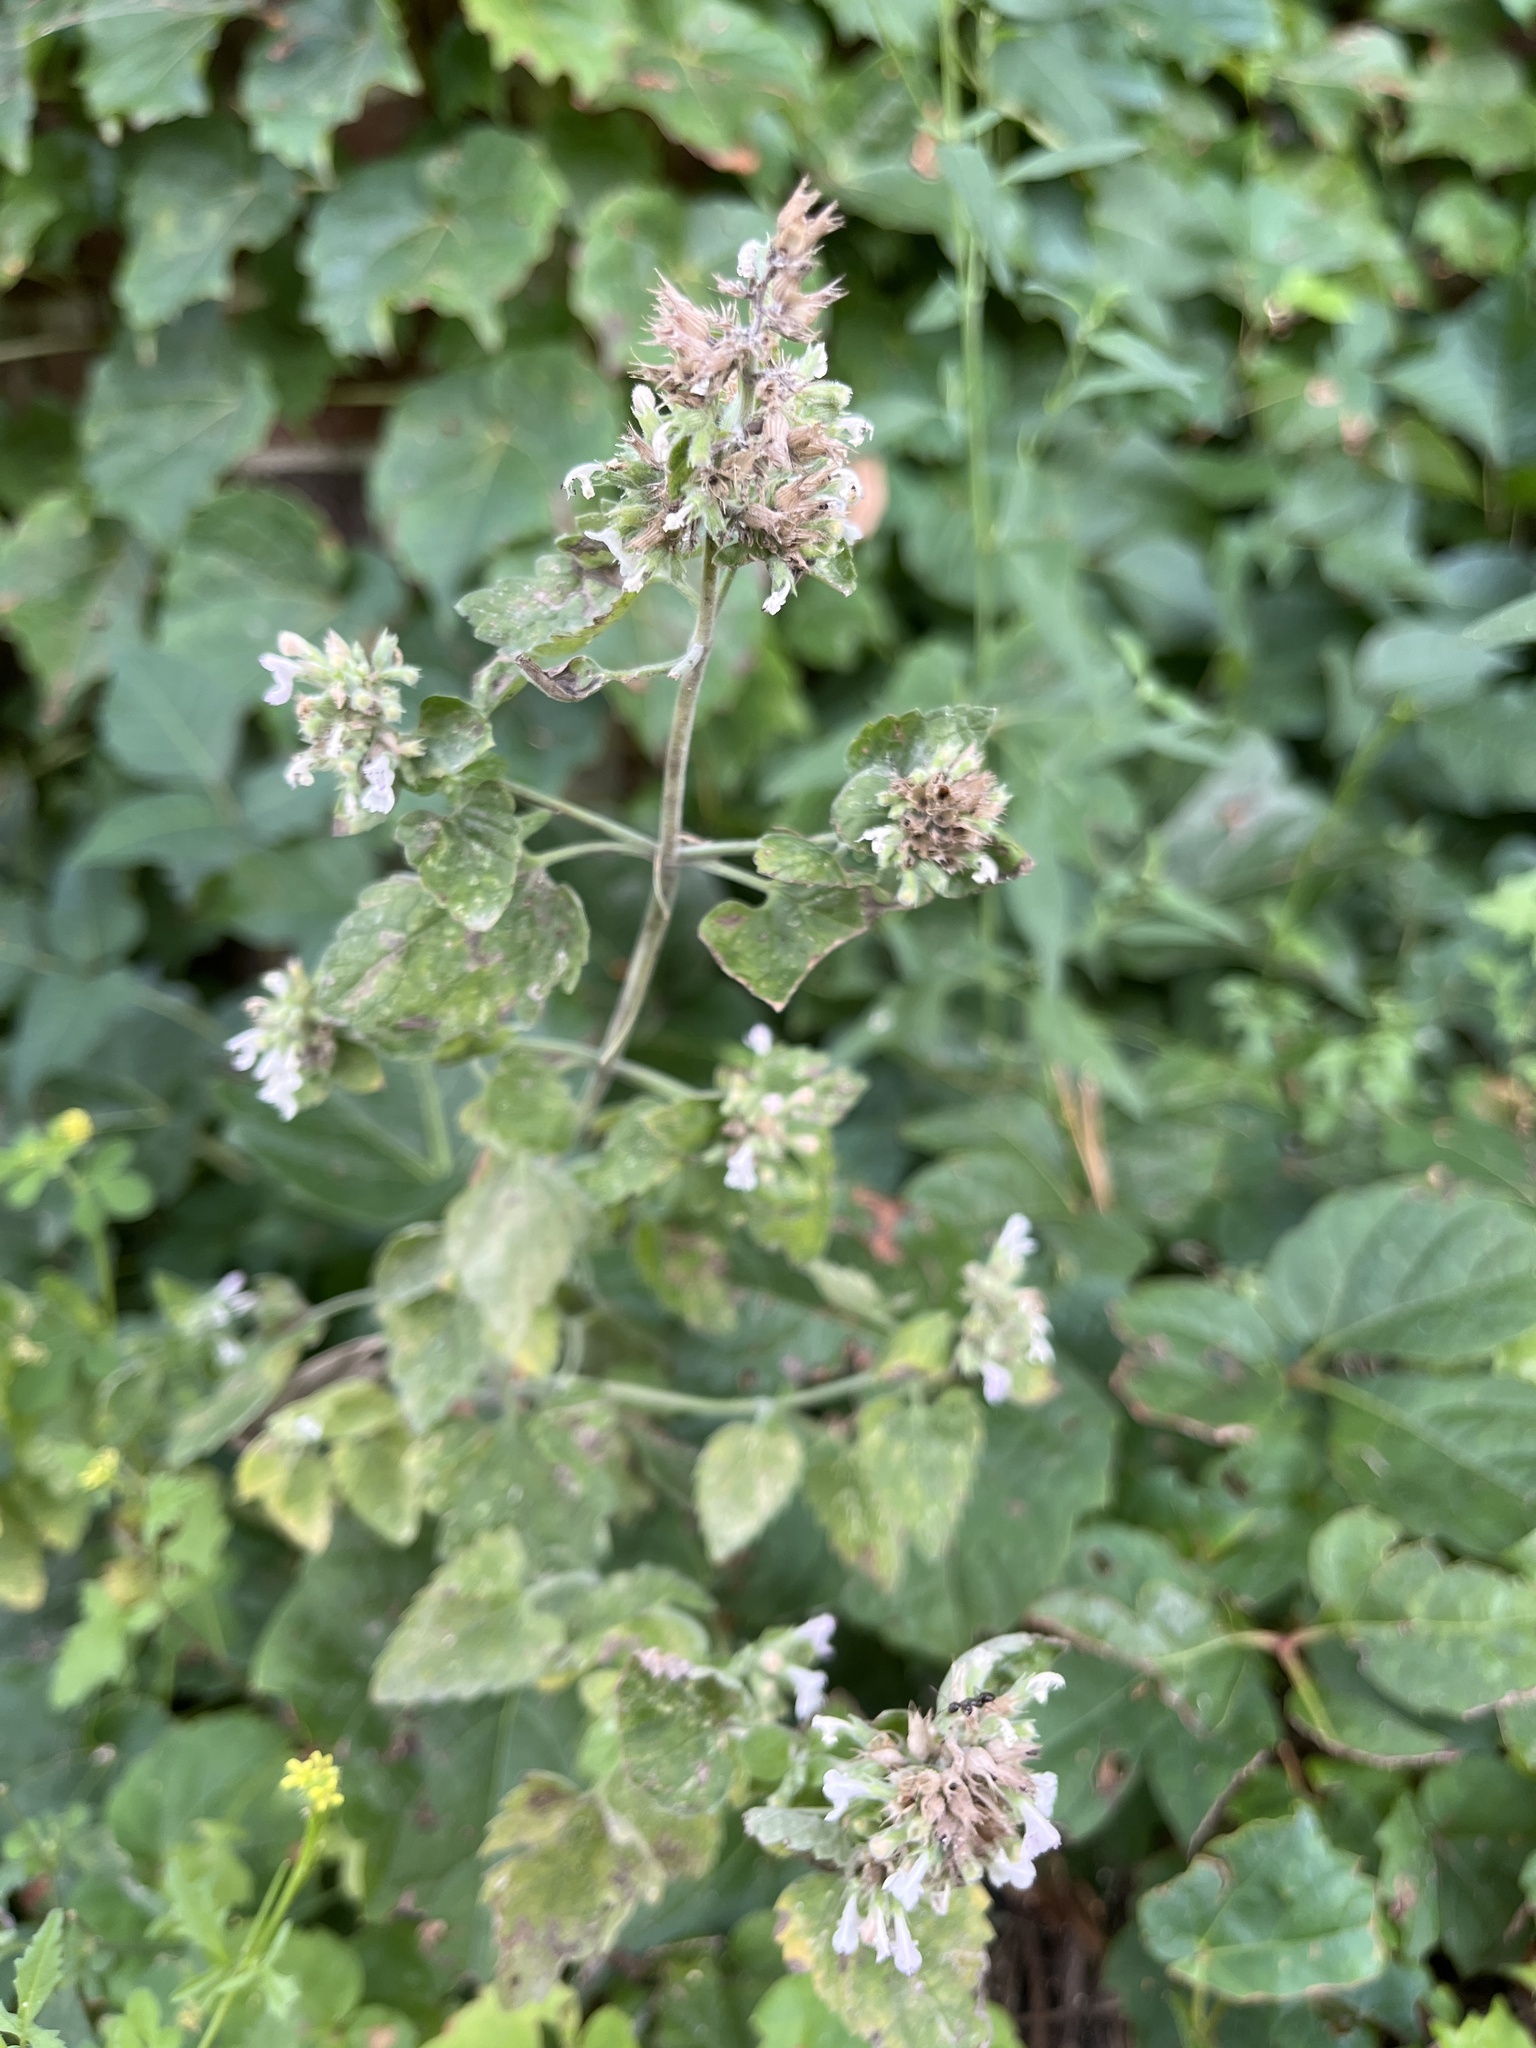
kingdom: Plantae
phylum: Tracheophyta
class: Magnoliopsida
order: Lamiales
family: Lamiaceae
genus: Nepeta
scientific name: Nepeta cataria
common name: Catnip
